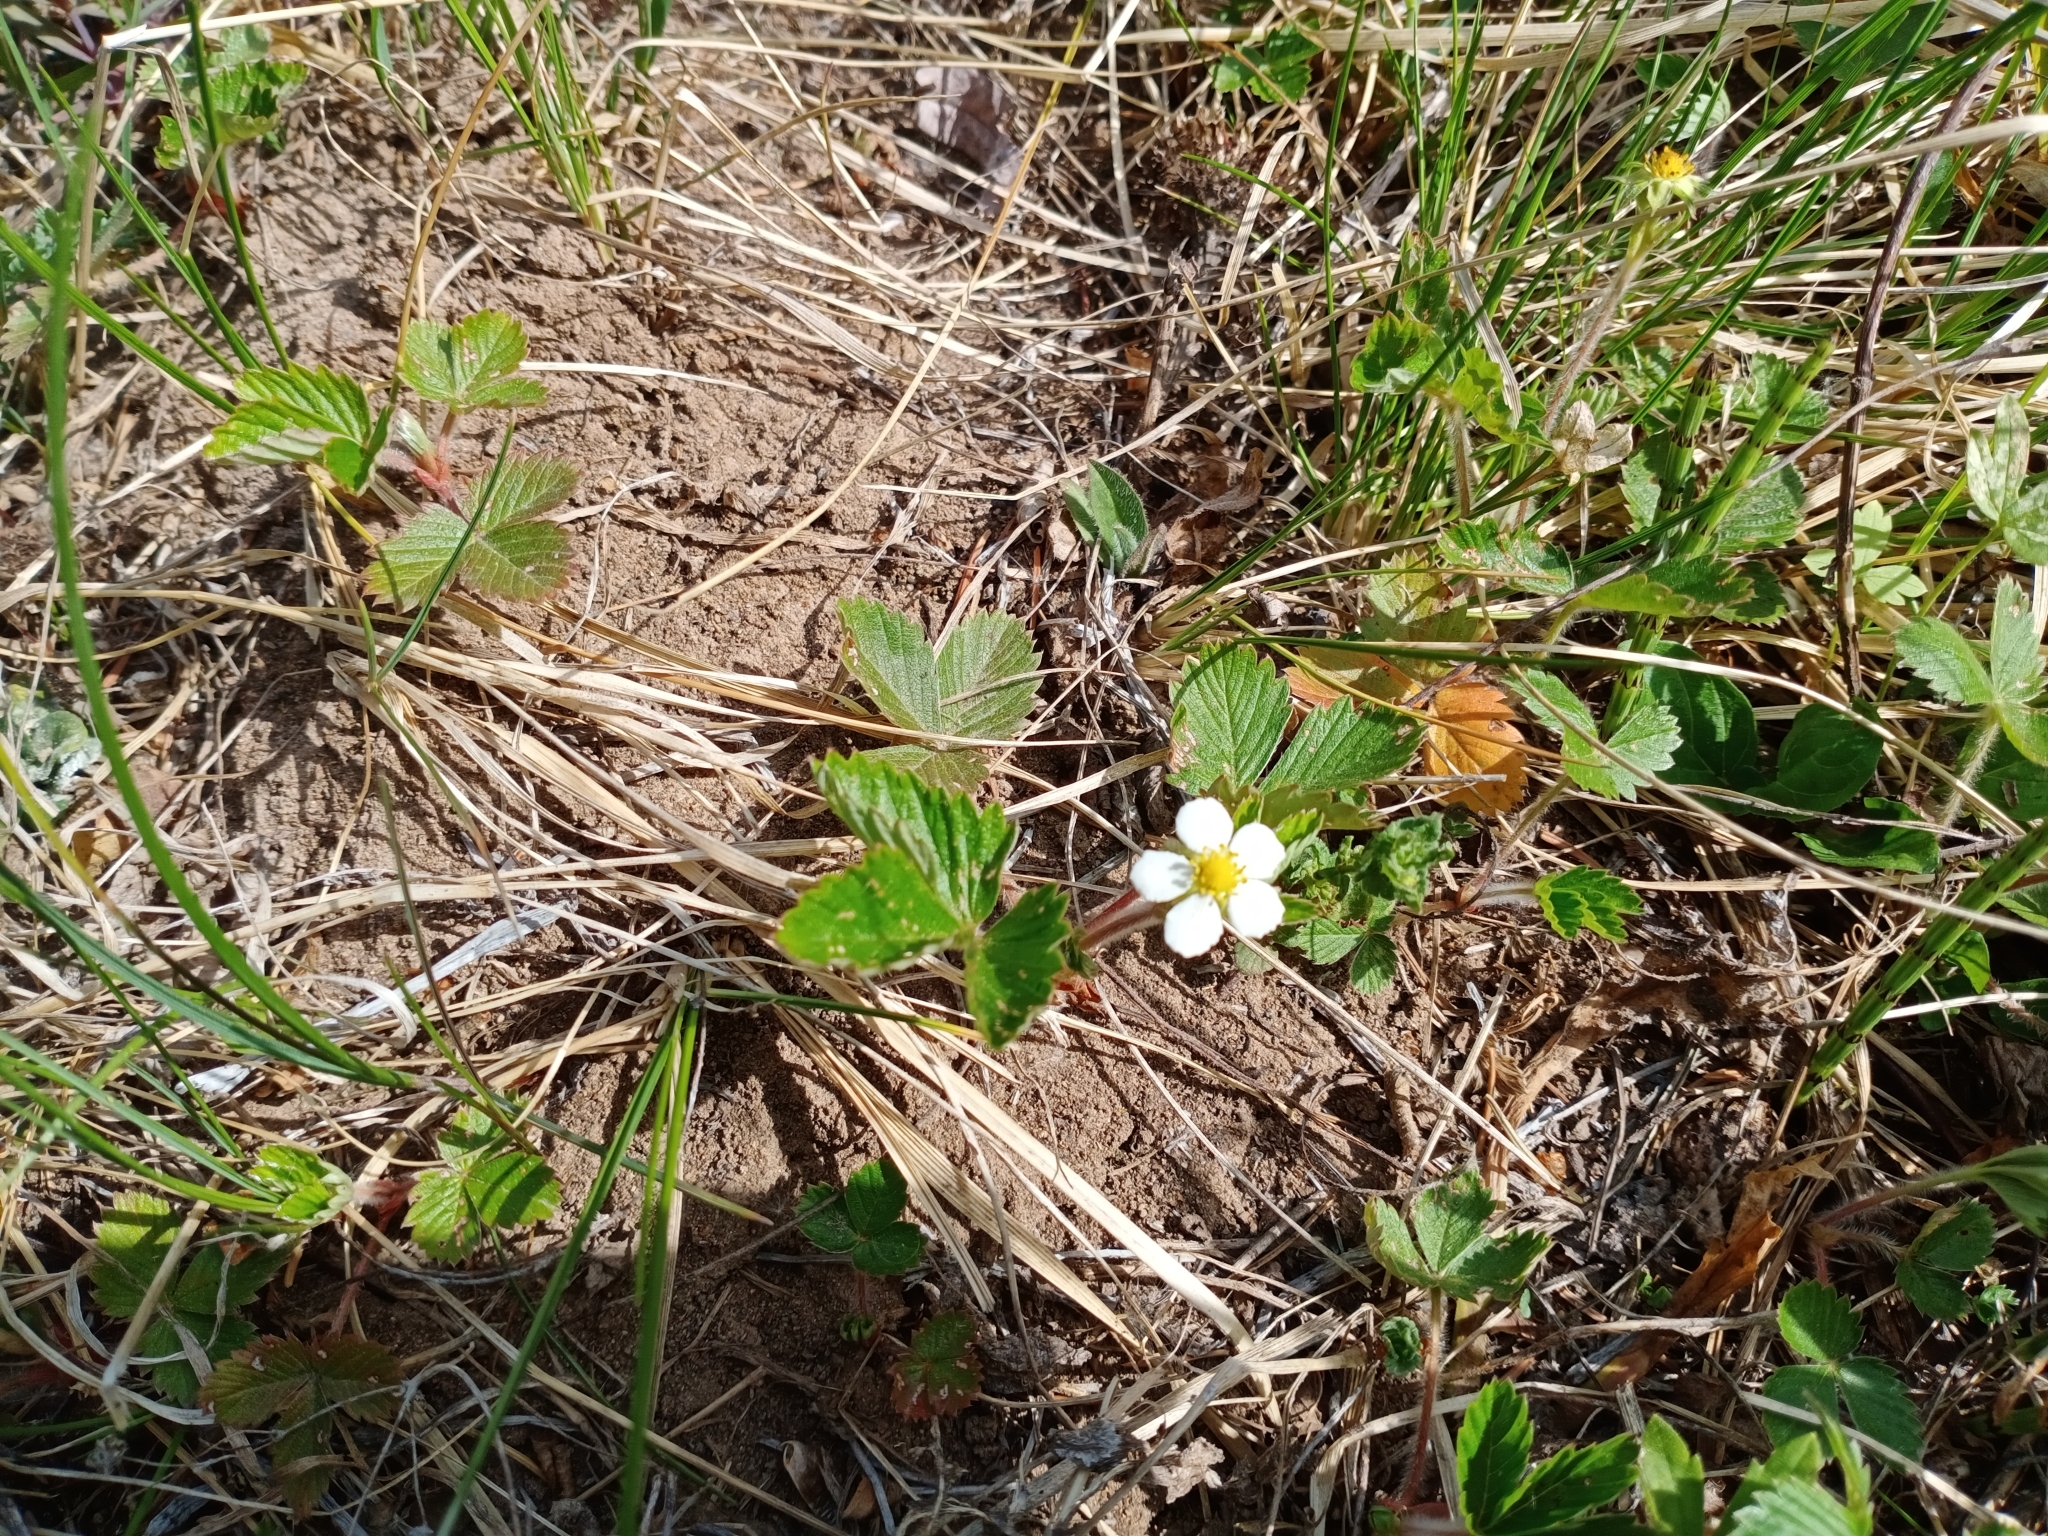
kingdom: Plantae
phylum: Tracheophyta
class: Magnoliopsida
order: Rosales
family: Rosaceae
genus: Fragaria
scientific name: Fragaria vesca
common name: Wild strawberry
